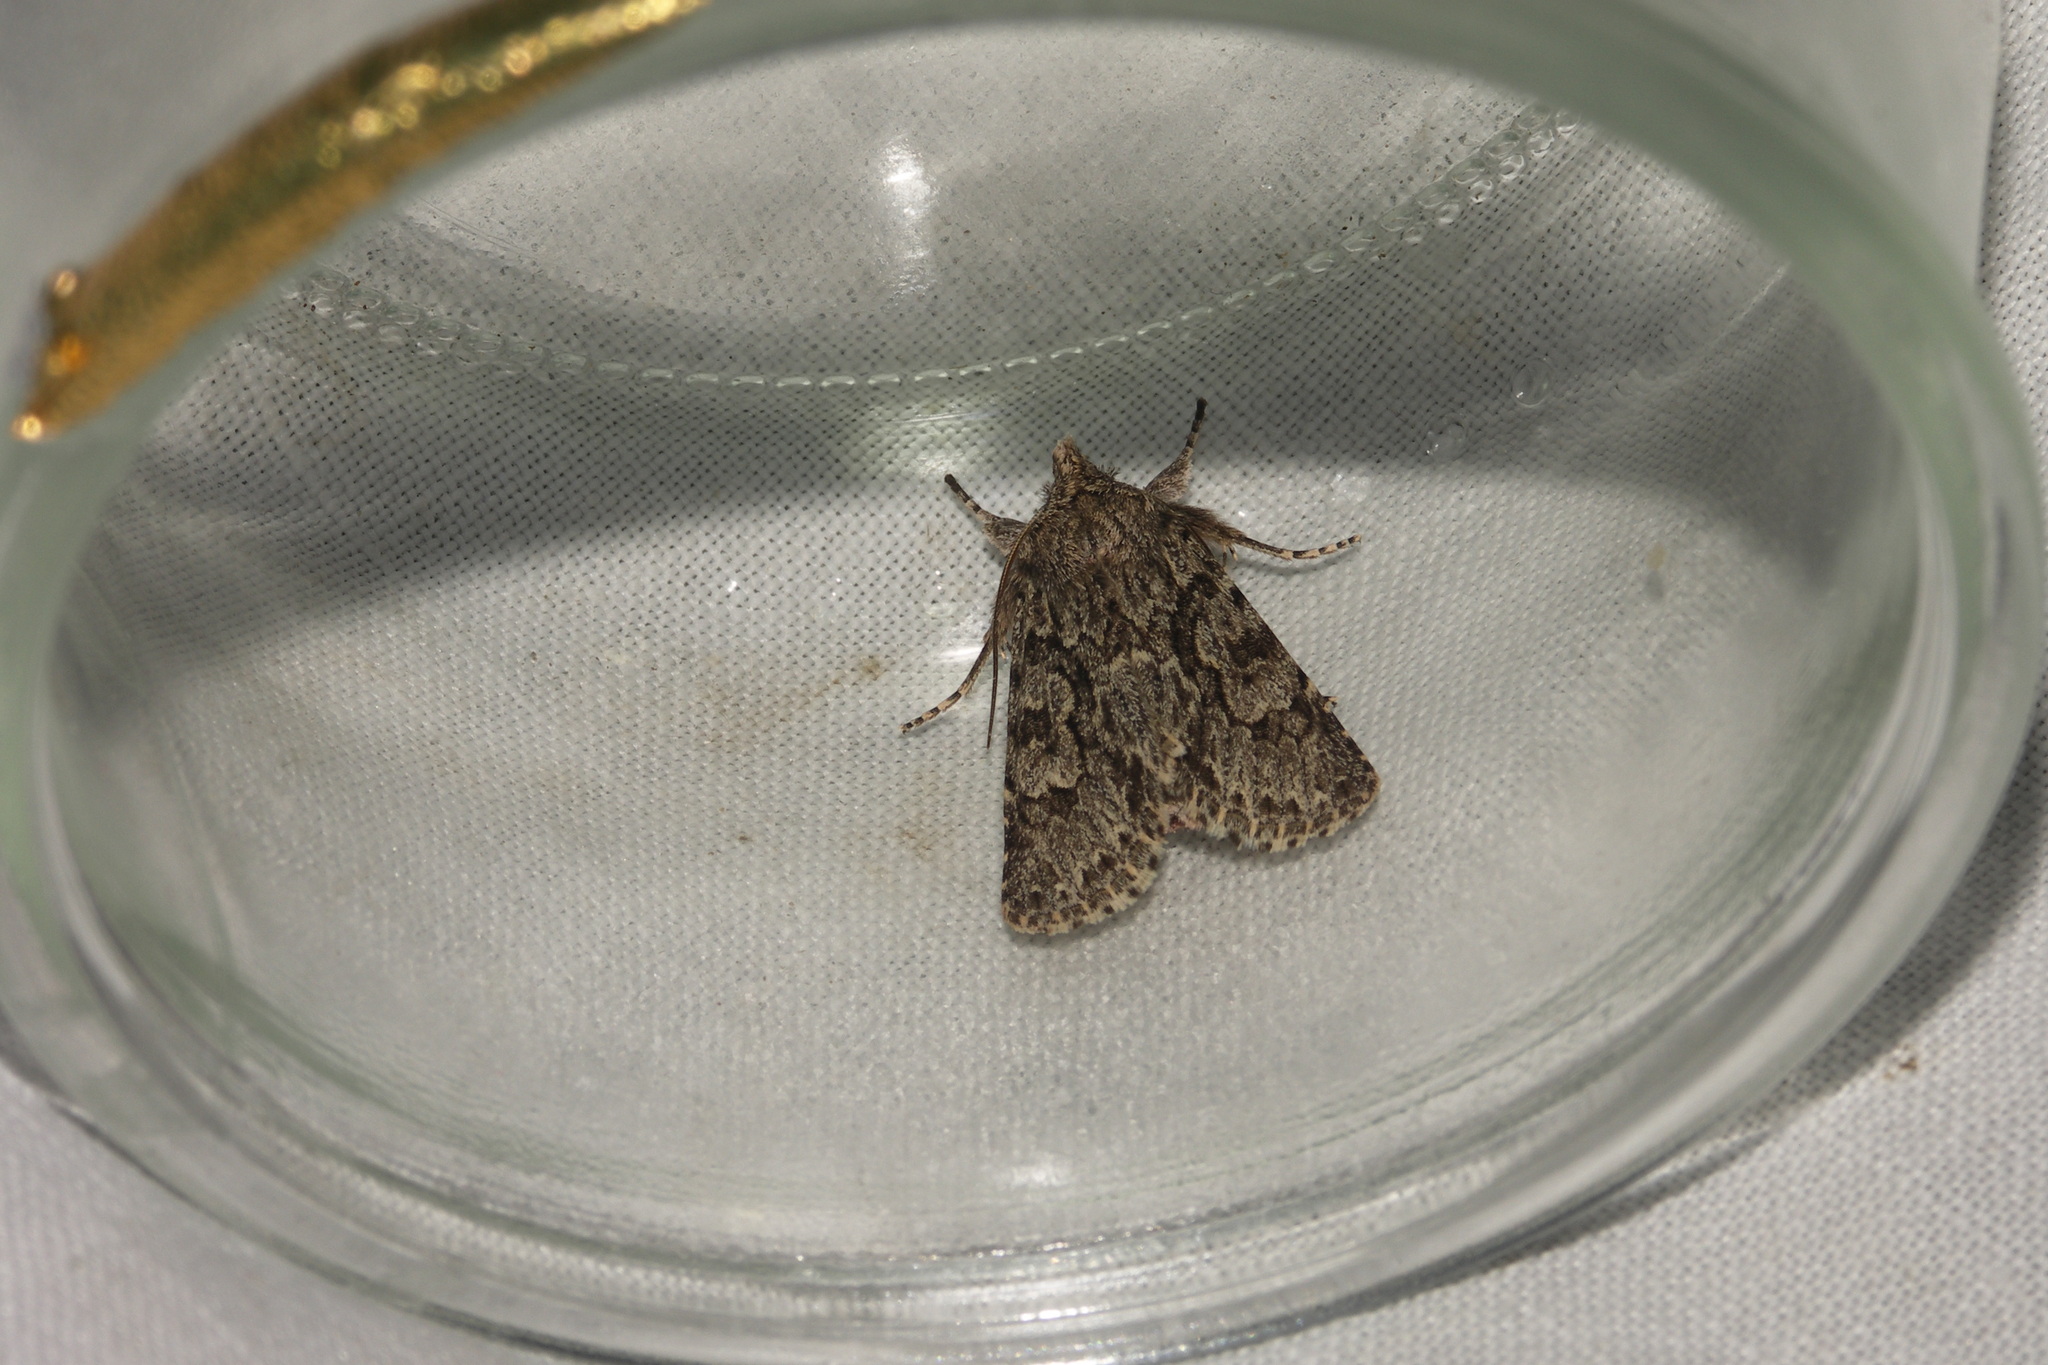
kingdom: Animalia
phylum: Arthropoda
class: Insecta
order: Lepidoptera
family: Noctuidae
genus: Xylocampa
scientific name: Xylocampa areola
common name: Early grey
